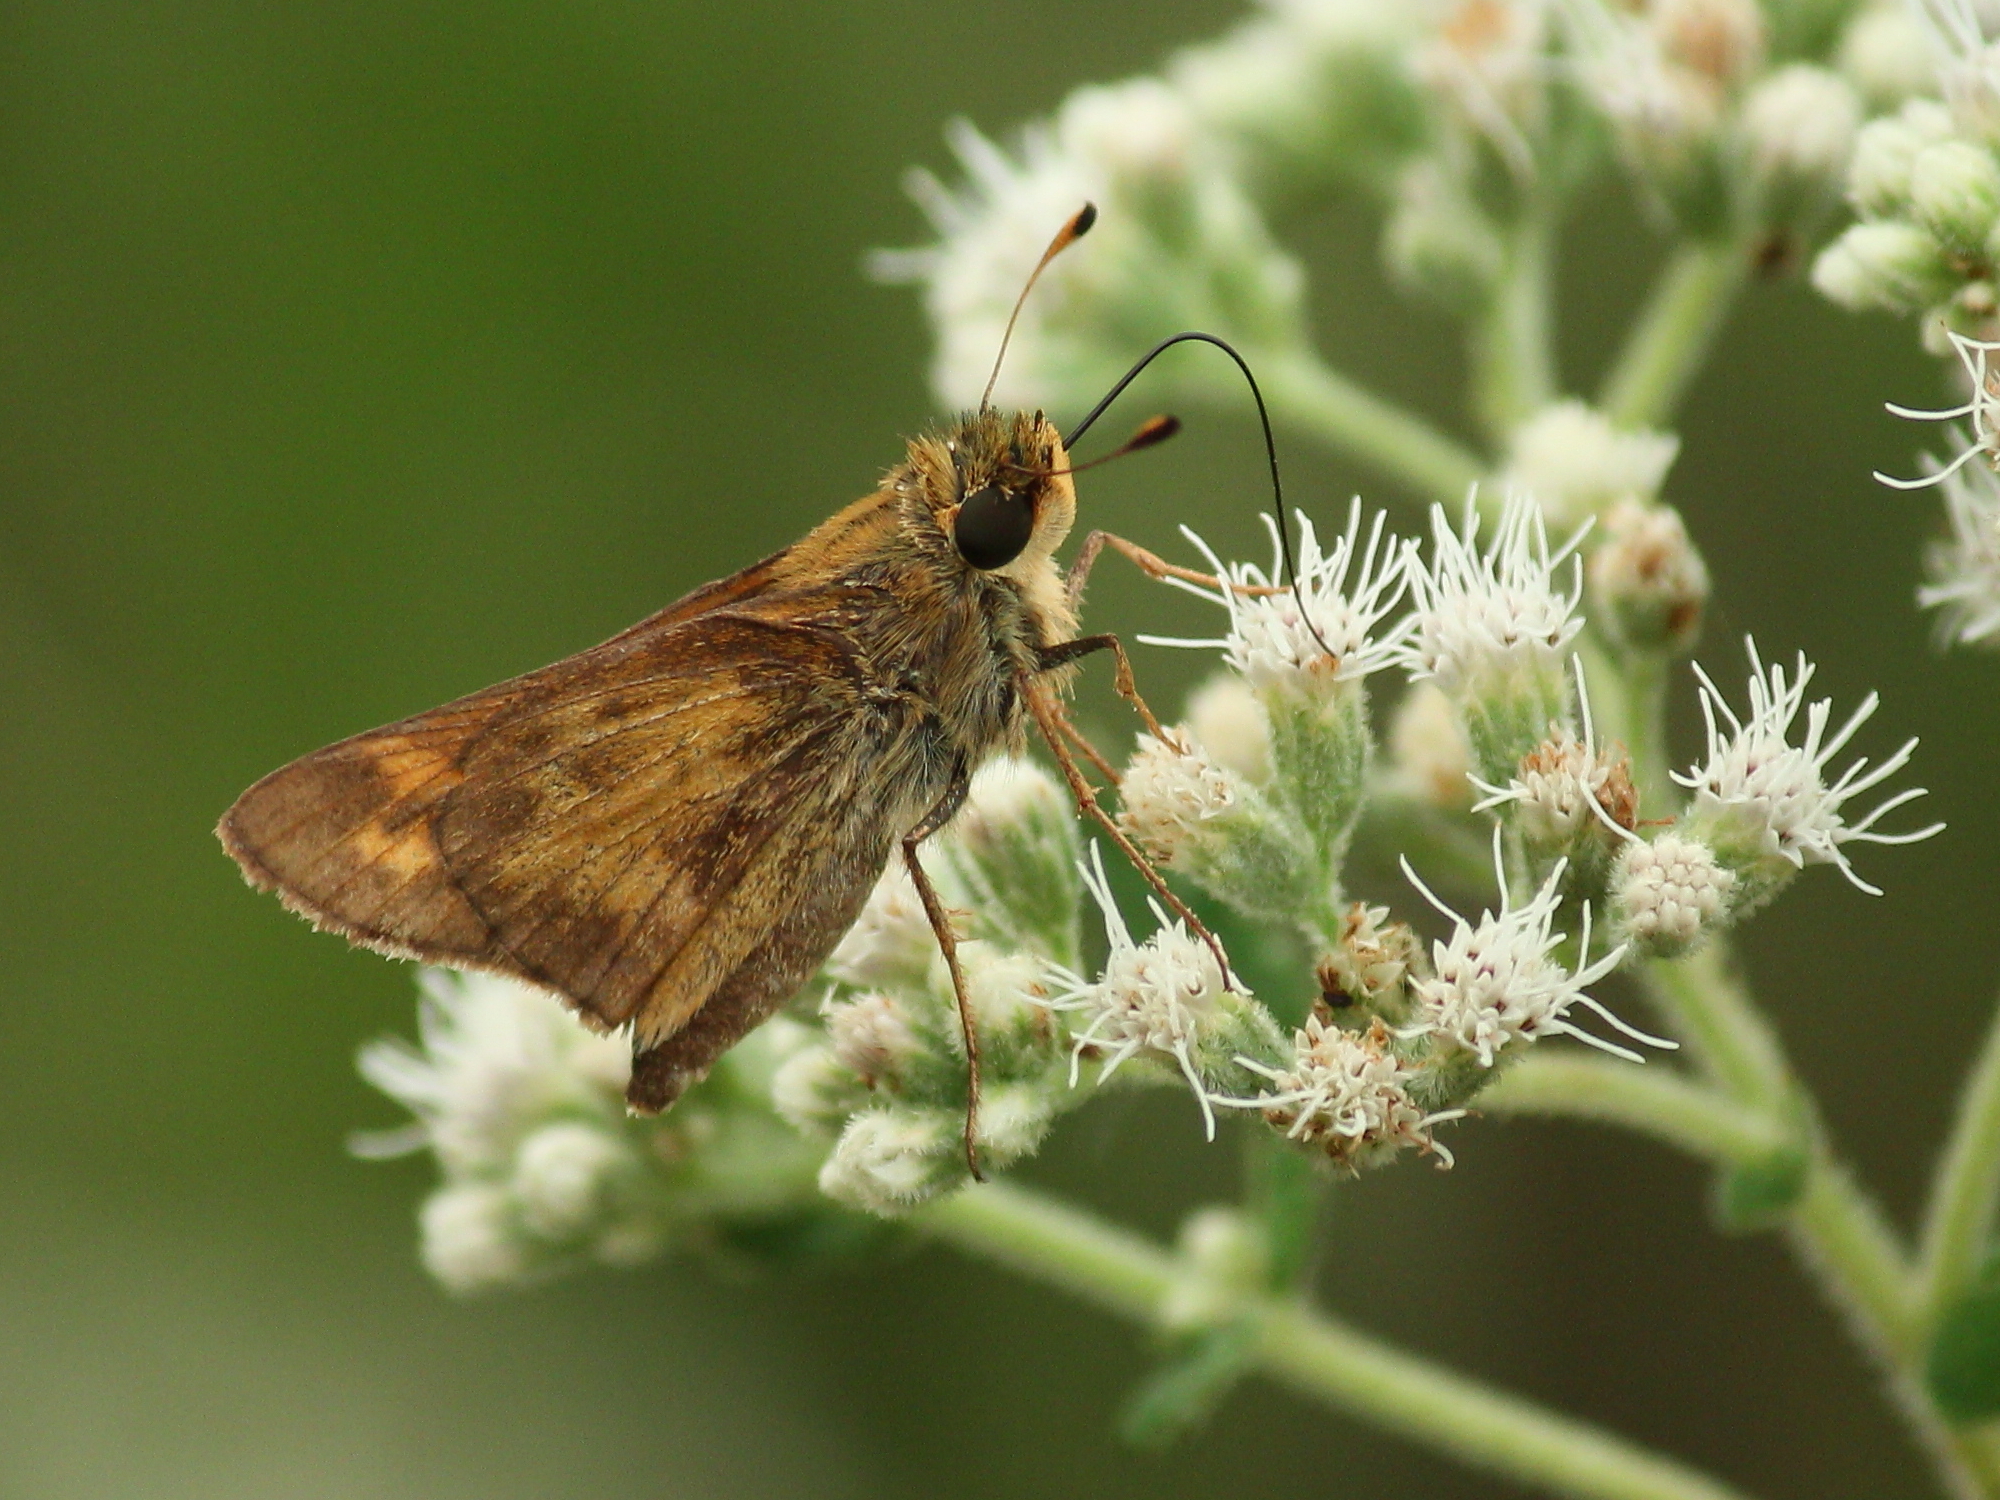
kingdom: Animalia
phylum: Arthropoda
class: Insecta
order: Lepidoptera
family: Hesperiidae
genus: Atalopedes
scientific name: Atalopedes
